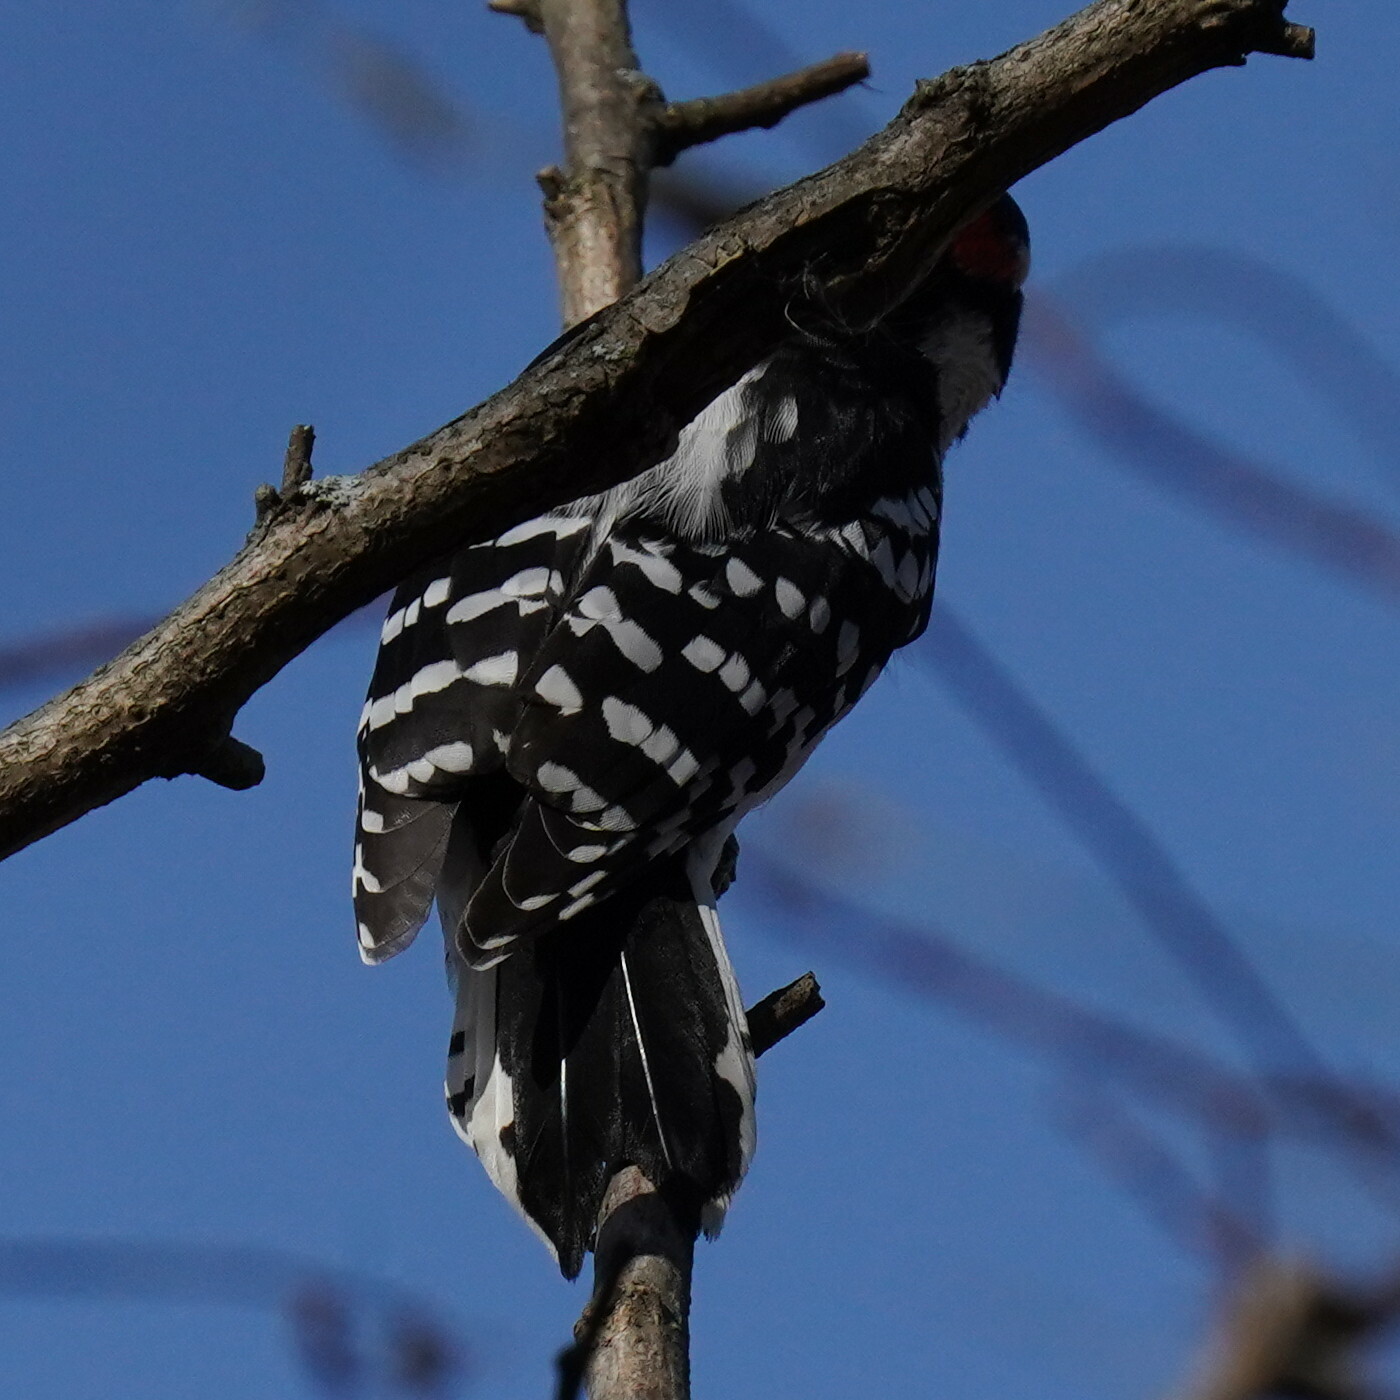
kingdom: Animalia
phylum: Chordata
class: Aves
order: Piciformes
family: Picidae
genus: Dryobates
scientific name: Dryobates pubescens
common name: Downy woodpecker
